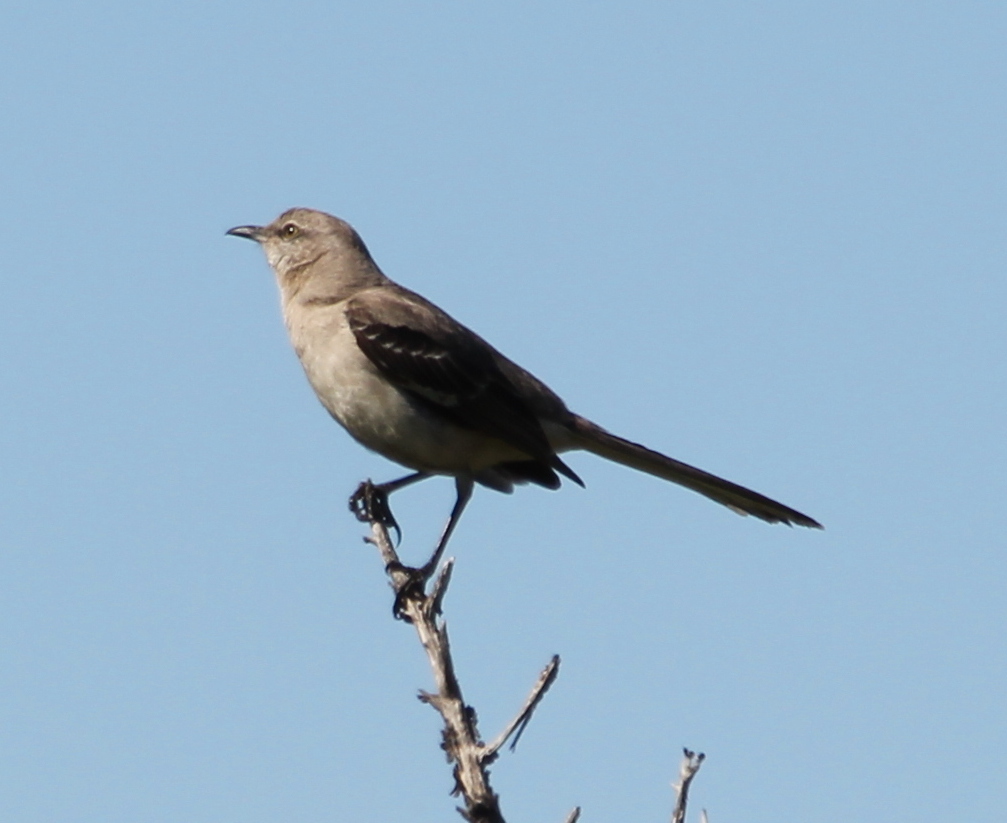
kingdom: Animalia
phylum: Chordata
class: Aves
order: Passeriformes
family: Mimidae
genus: Mimus
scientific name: Mimus polyglottos
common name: Northern mockingbird
